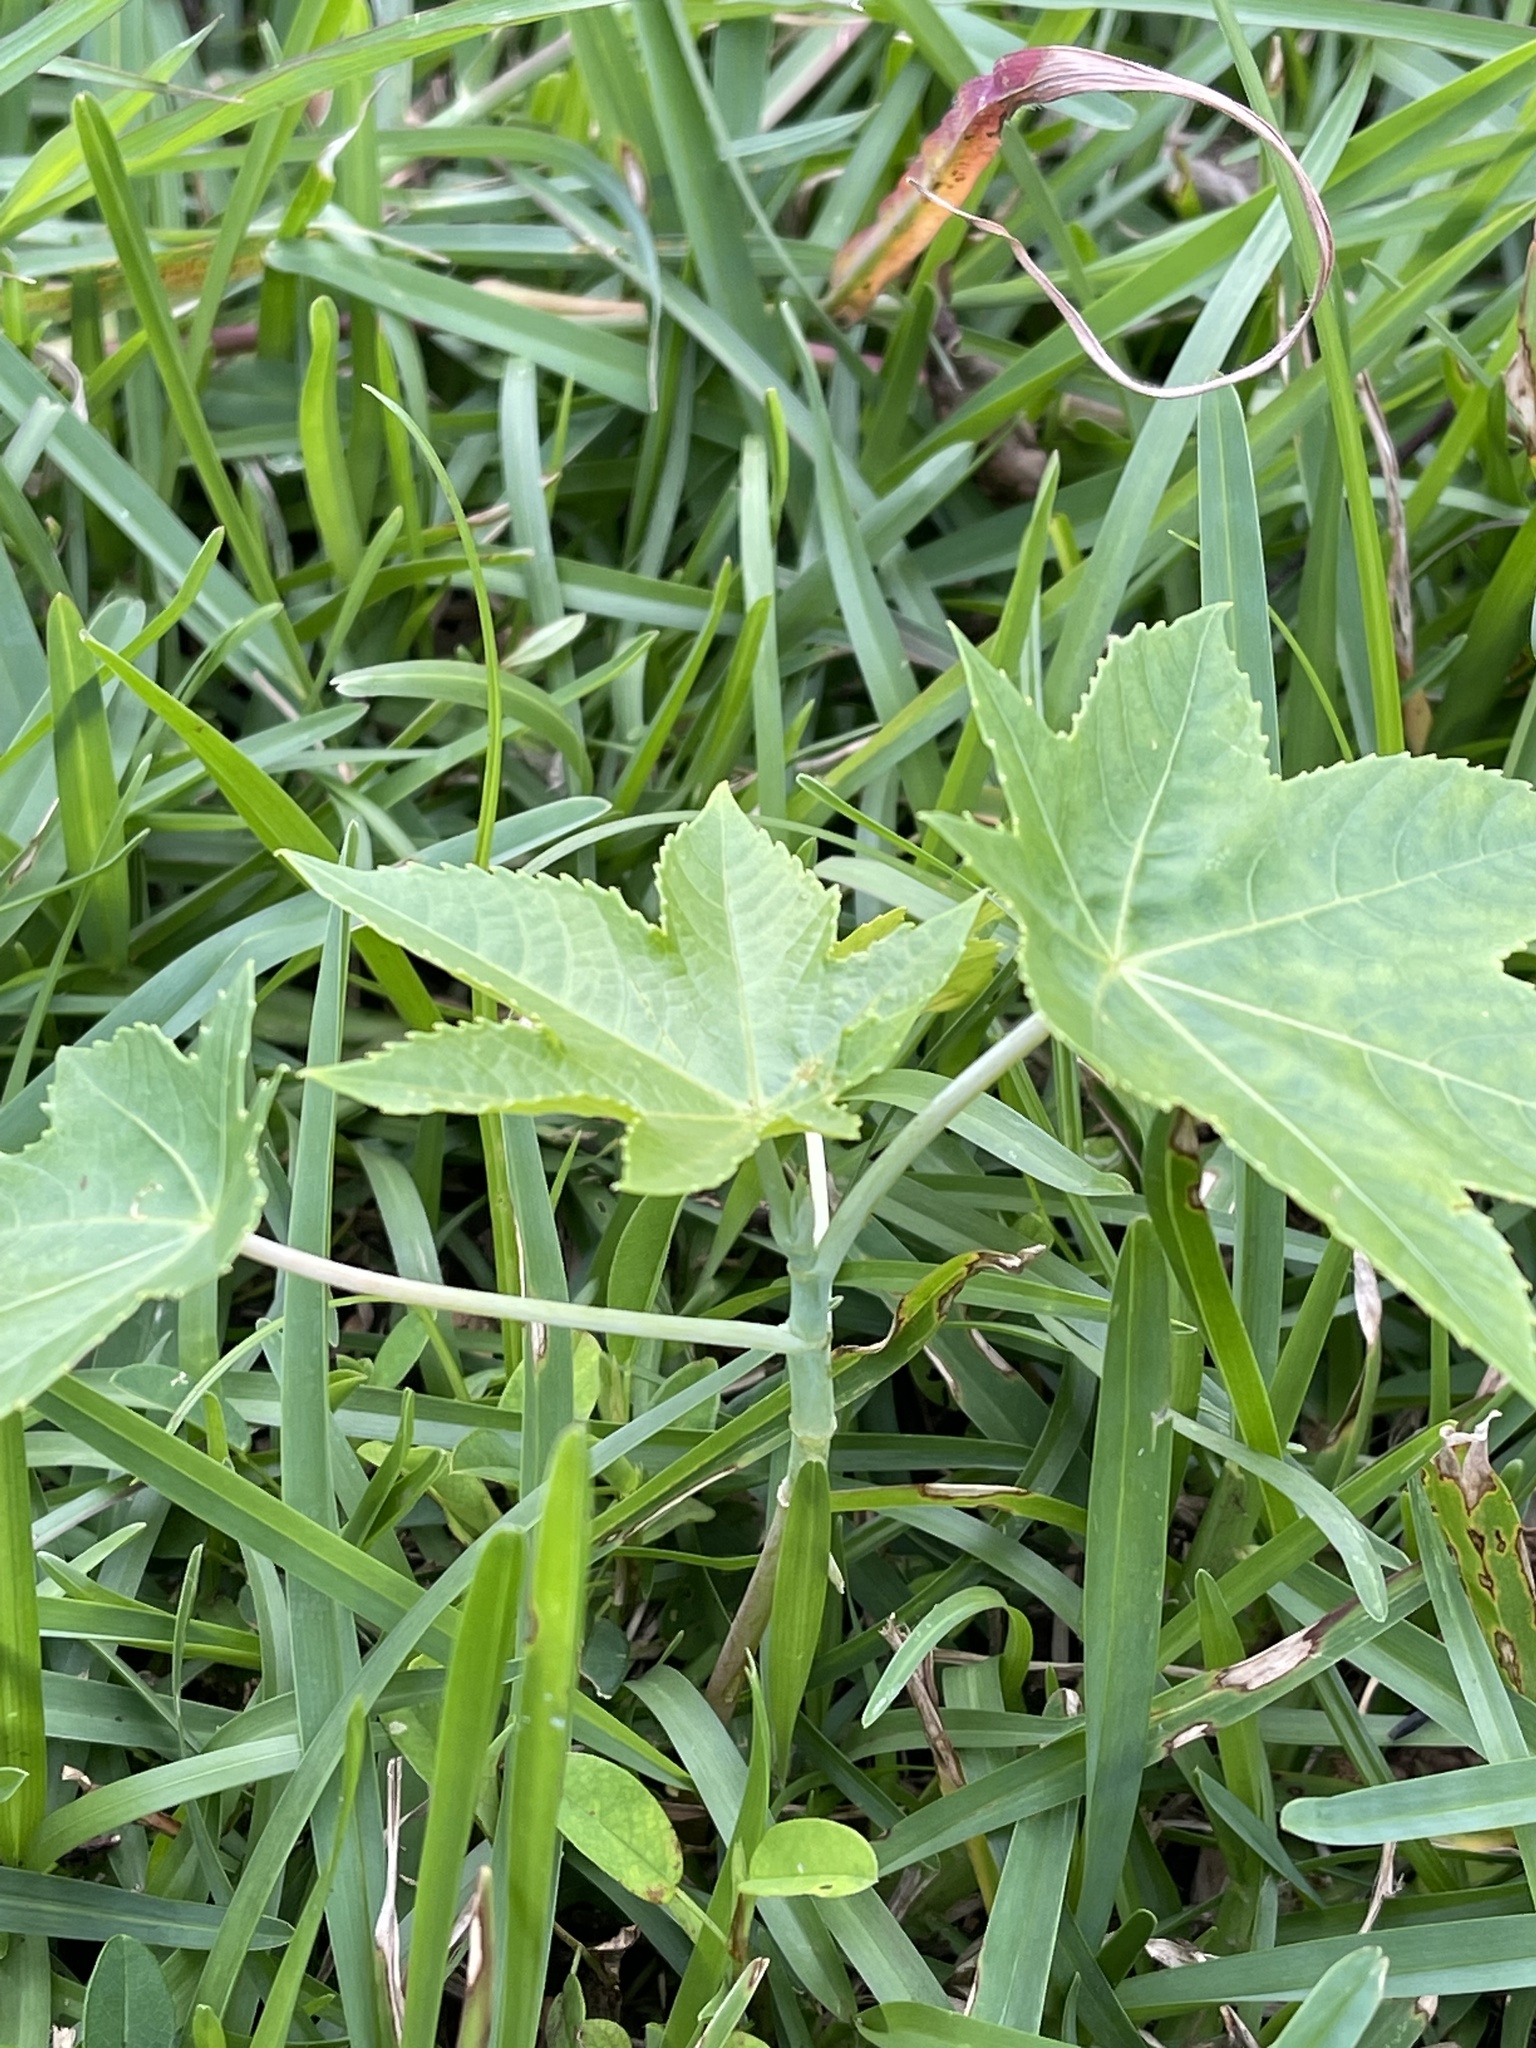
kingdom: Plantae
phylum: Tracheophyta
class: Magnoliopsida
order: Malpighiales
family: Euphorbiaceae
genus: Ricinus
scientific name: Ricinus communis
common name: Castor-oil-plant
